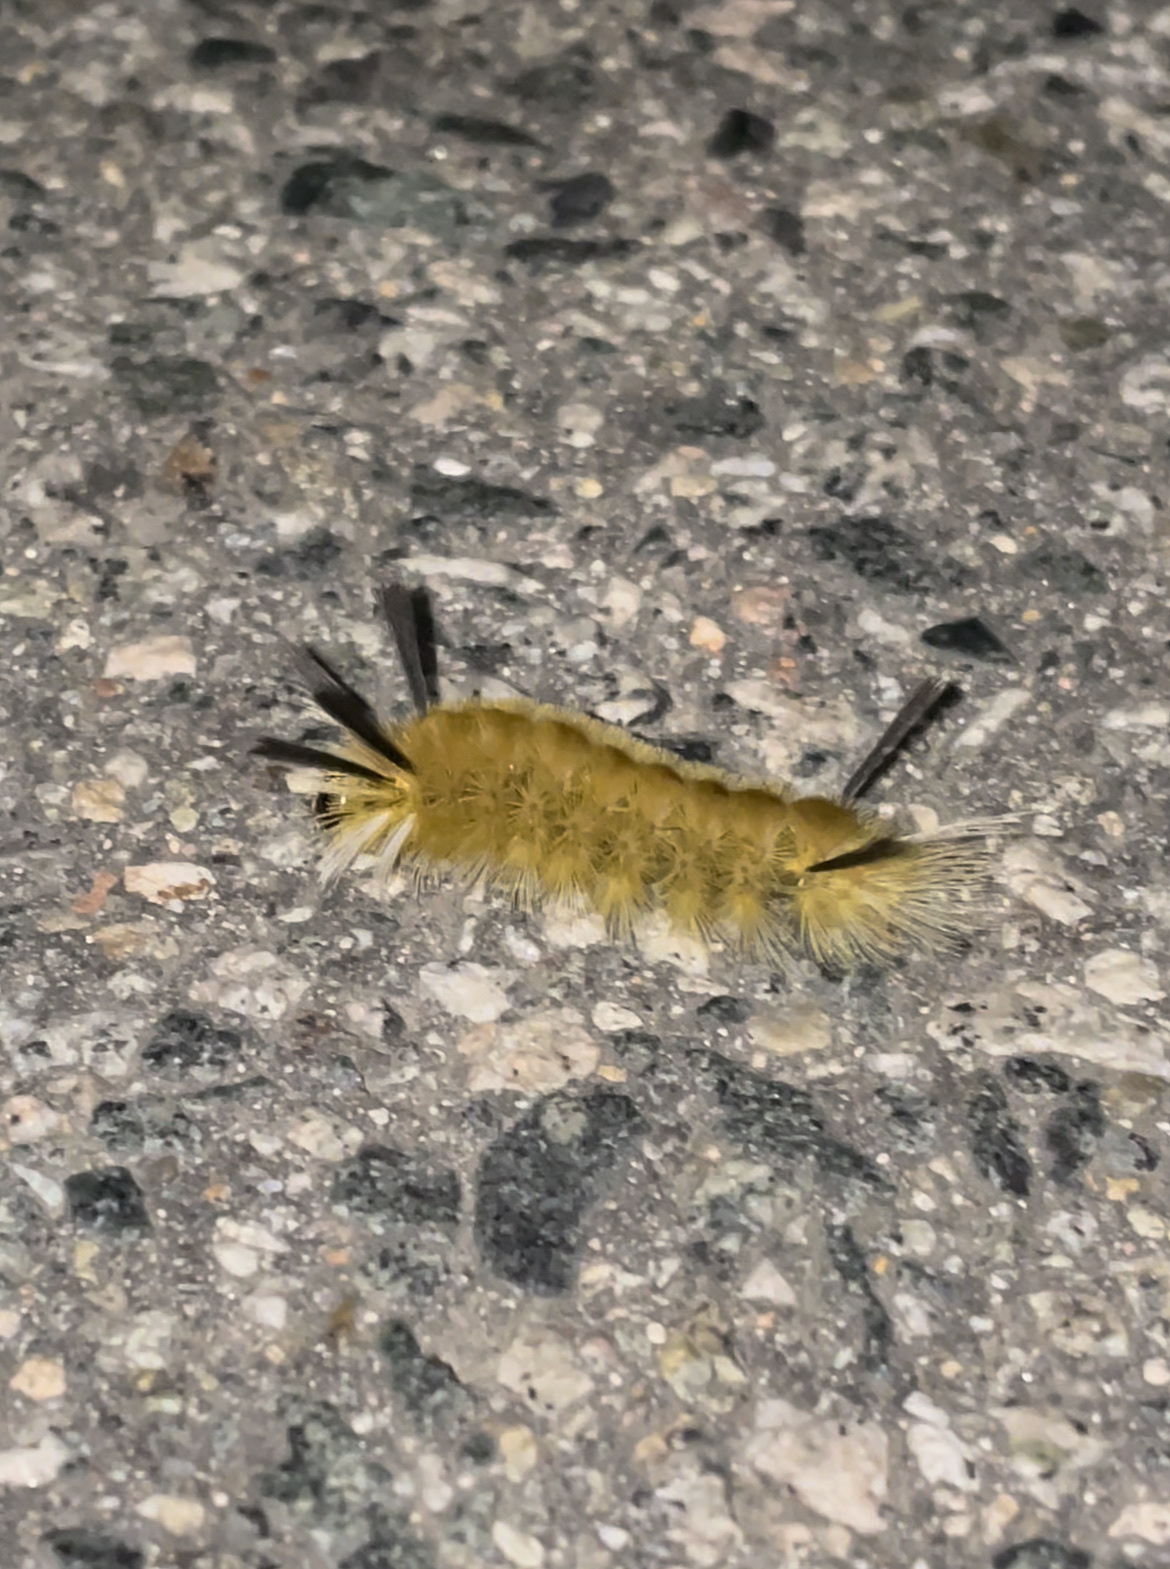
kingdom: Animalia
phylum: Arthropoda
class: Insecta
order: Lepidoptera
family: Erebidae
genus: Halysidota
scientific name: Halysidota tessellaris
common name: Banded tussock moth
